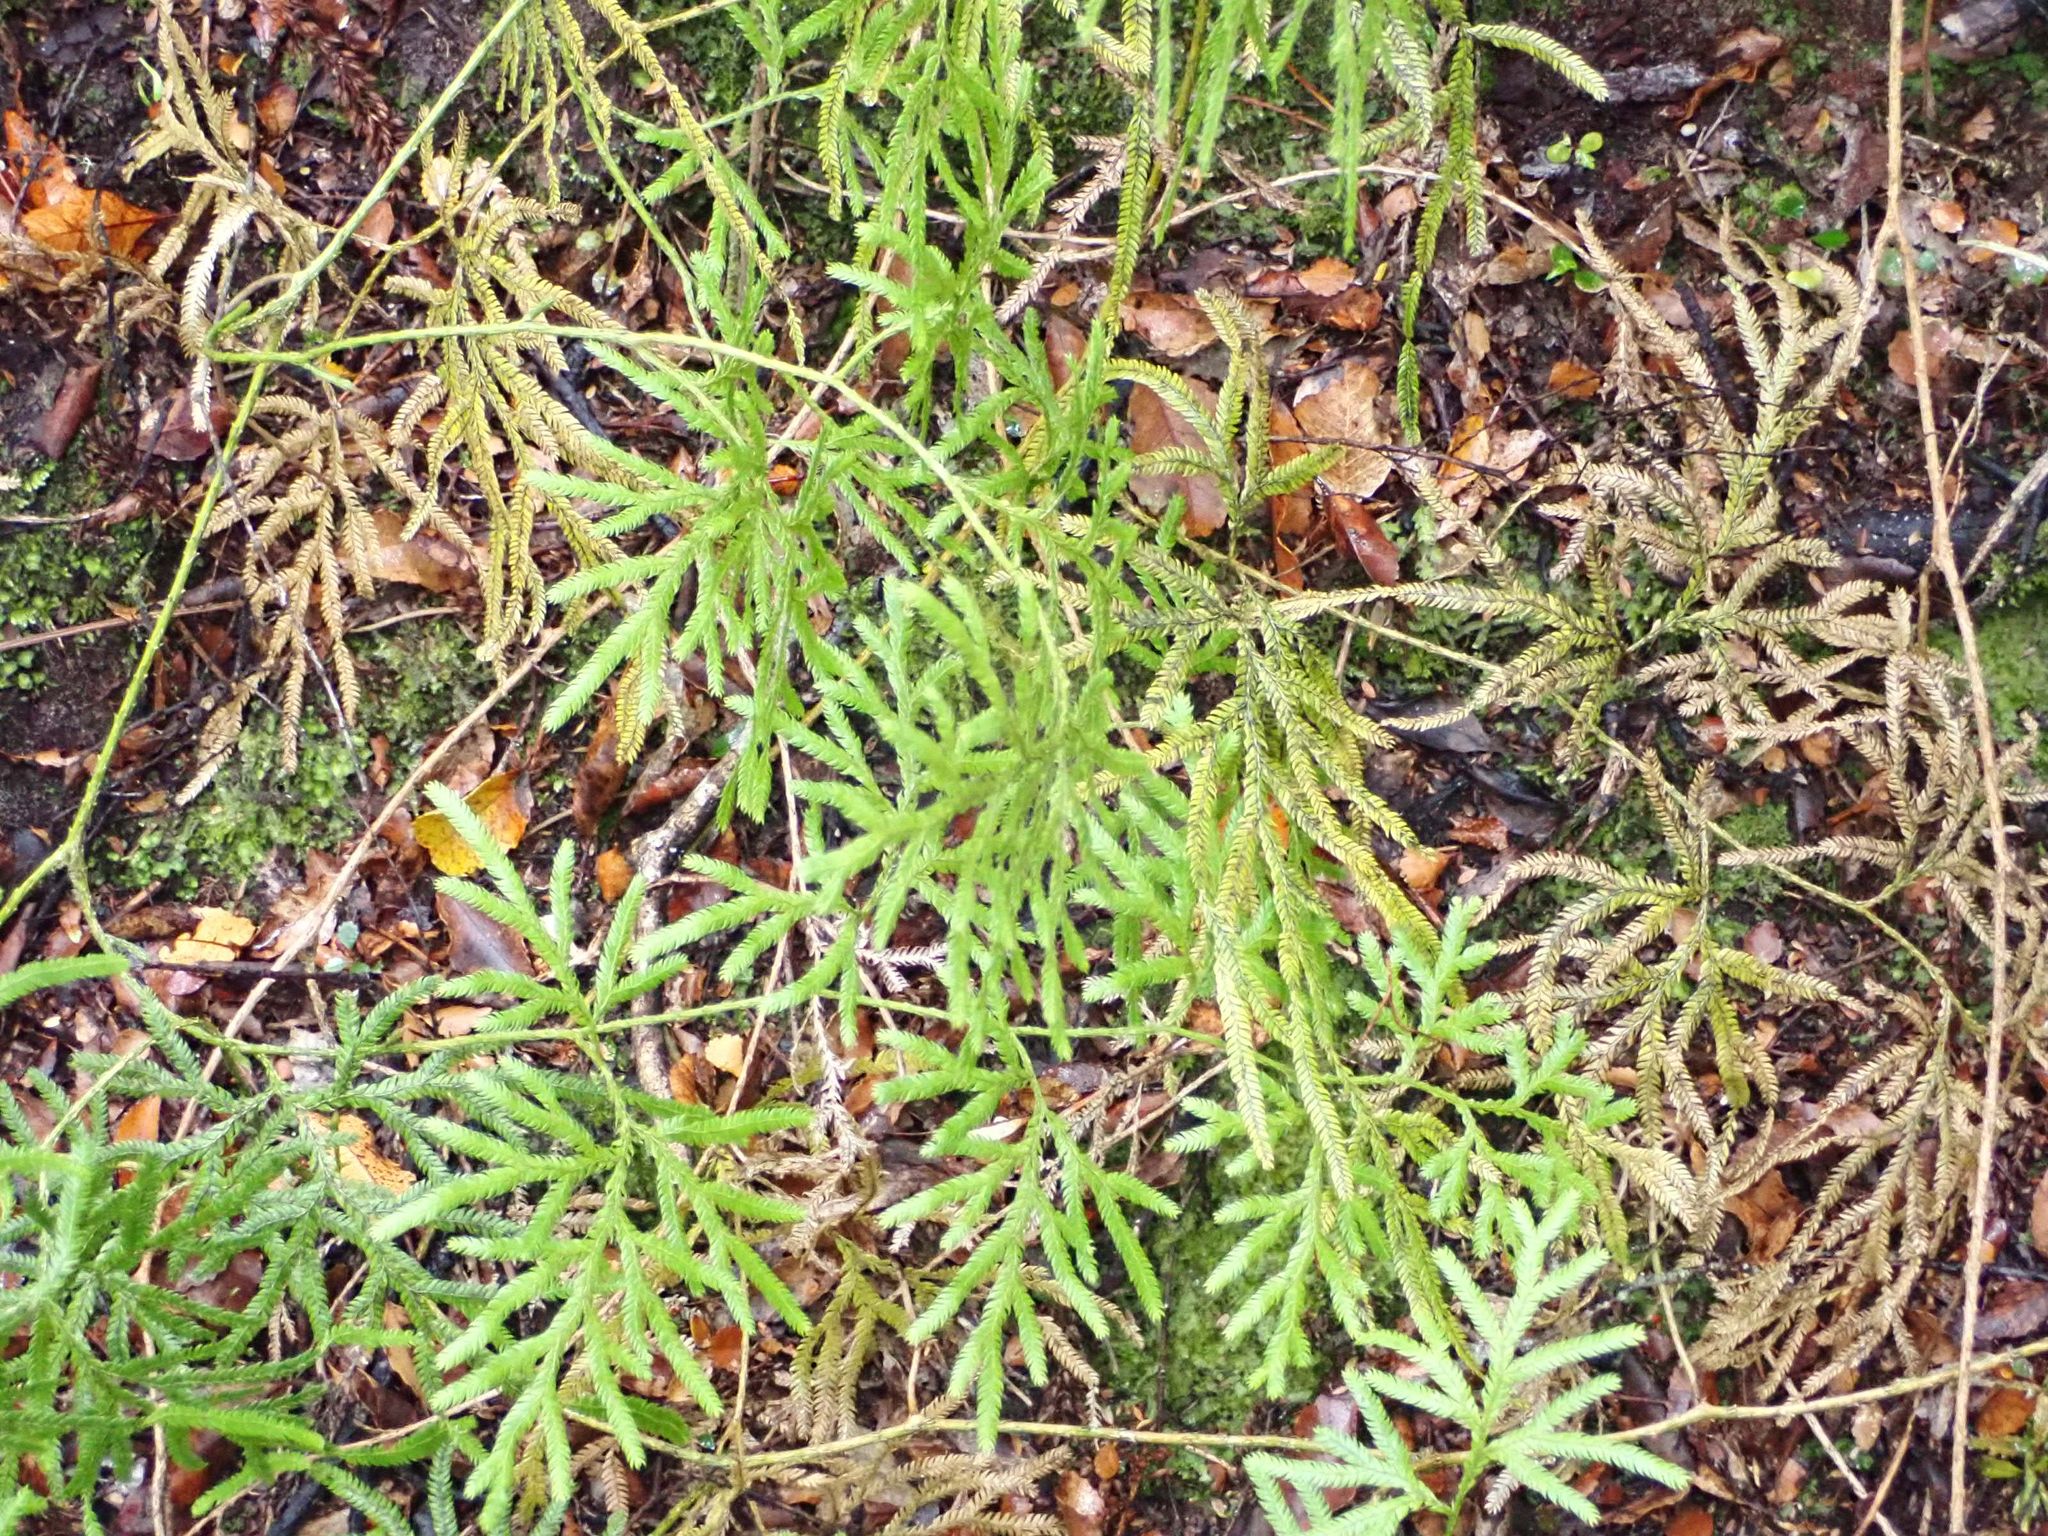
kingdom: Plantae
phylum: Tracheophyta
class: Lycopodiopsida
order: Lycopodiales
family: Lycopodiaceae
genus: Lycopodium
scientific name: Lycopodium volubile
